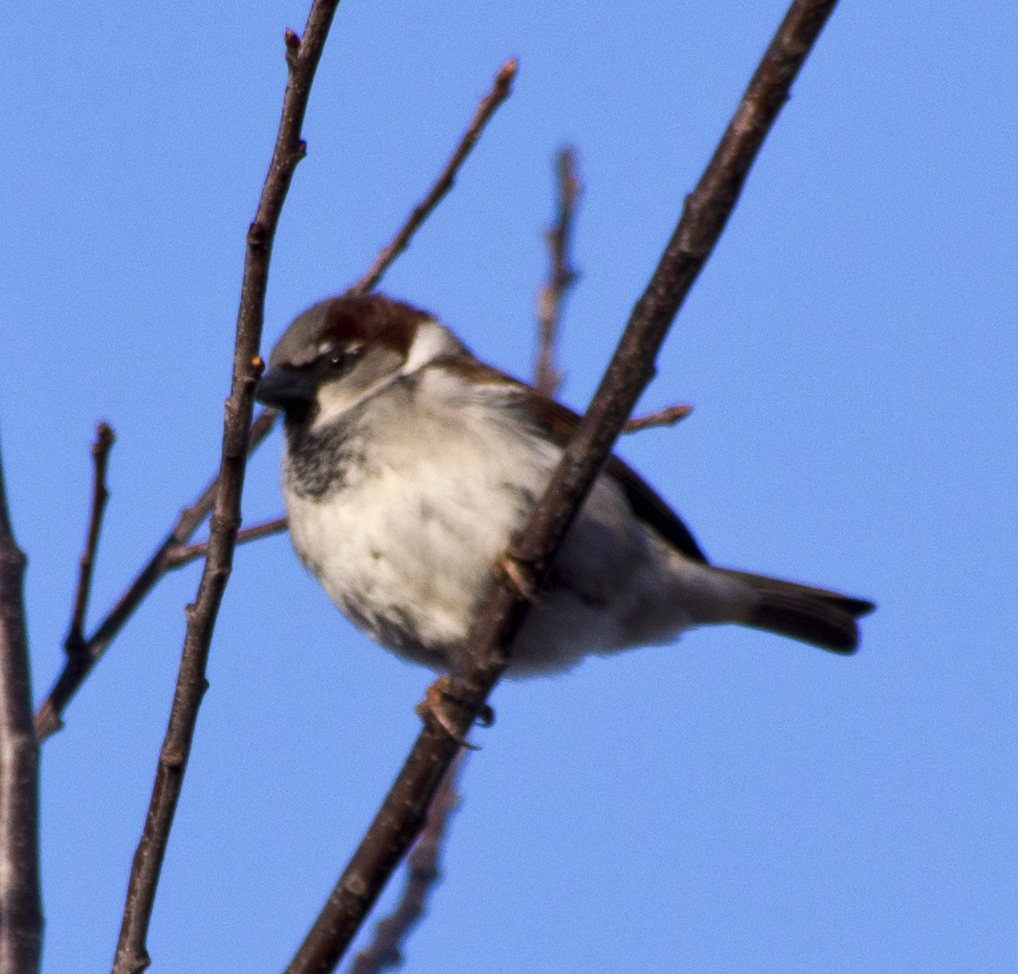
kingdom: Animalia
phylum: Chordata
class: Aves
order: Passeriformes
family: Passeridae
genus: Passer
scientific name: Passer domesticus
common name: House sparrow
